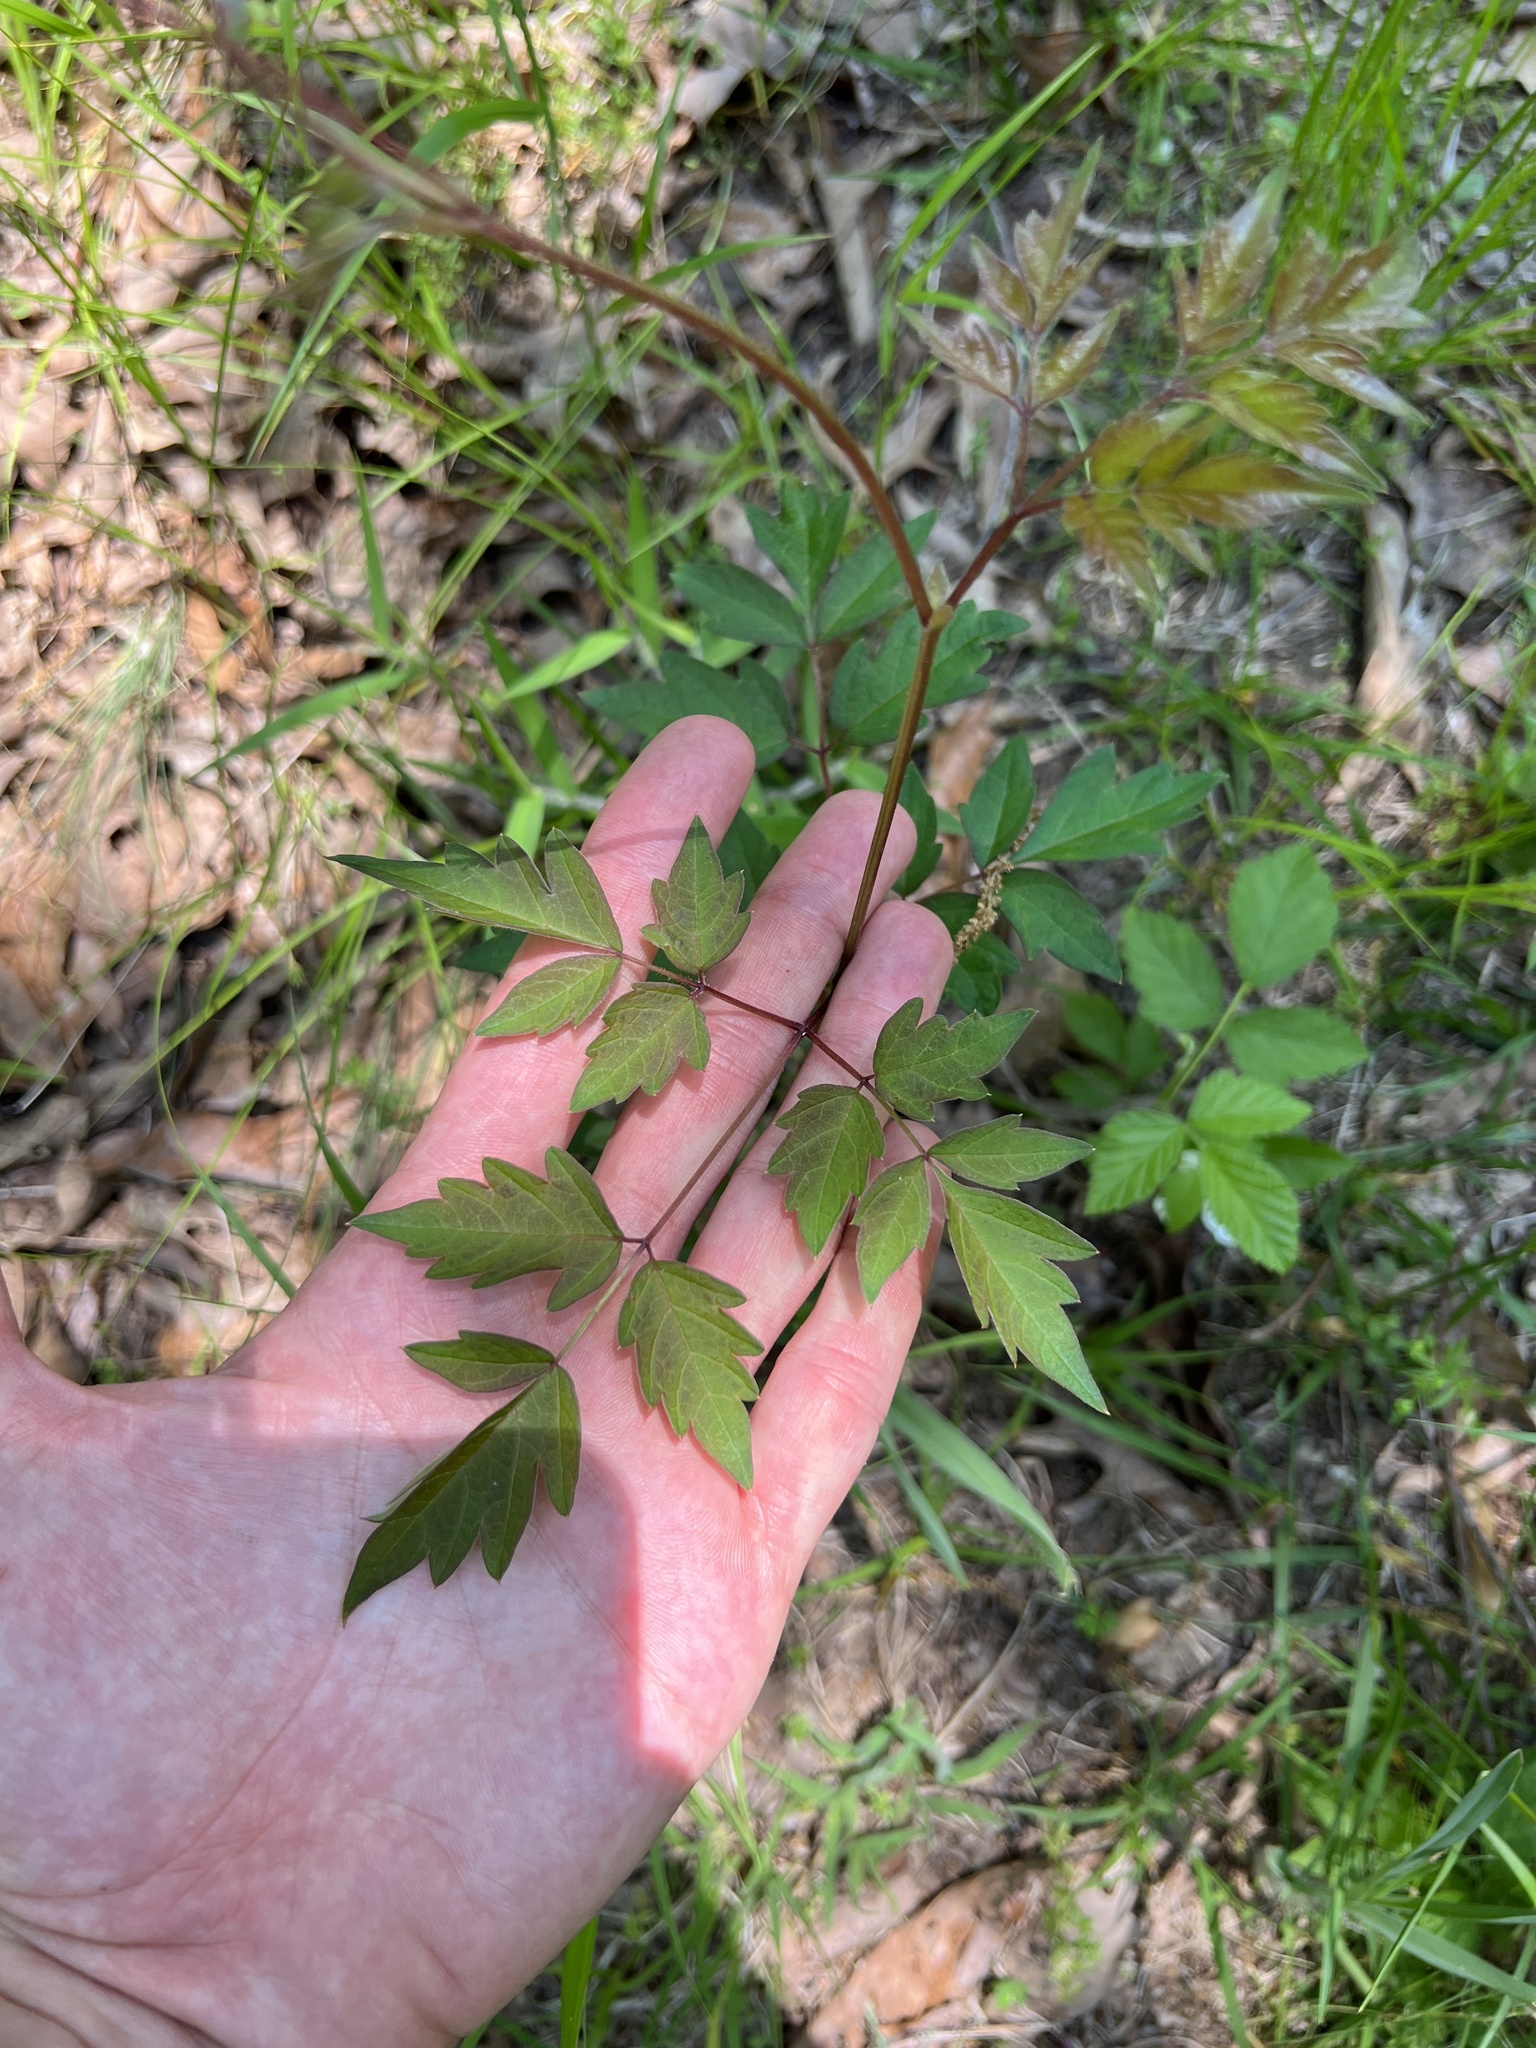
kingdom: Plantae
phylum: Tracheophyta
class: Magnoliopsida
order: Vitales
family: Vitaceae
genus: Nekemias
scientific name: Nekemias arborea
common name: Peppervine
